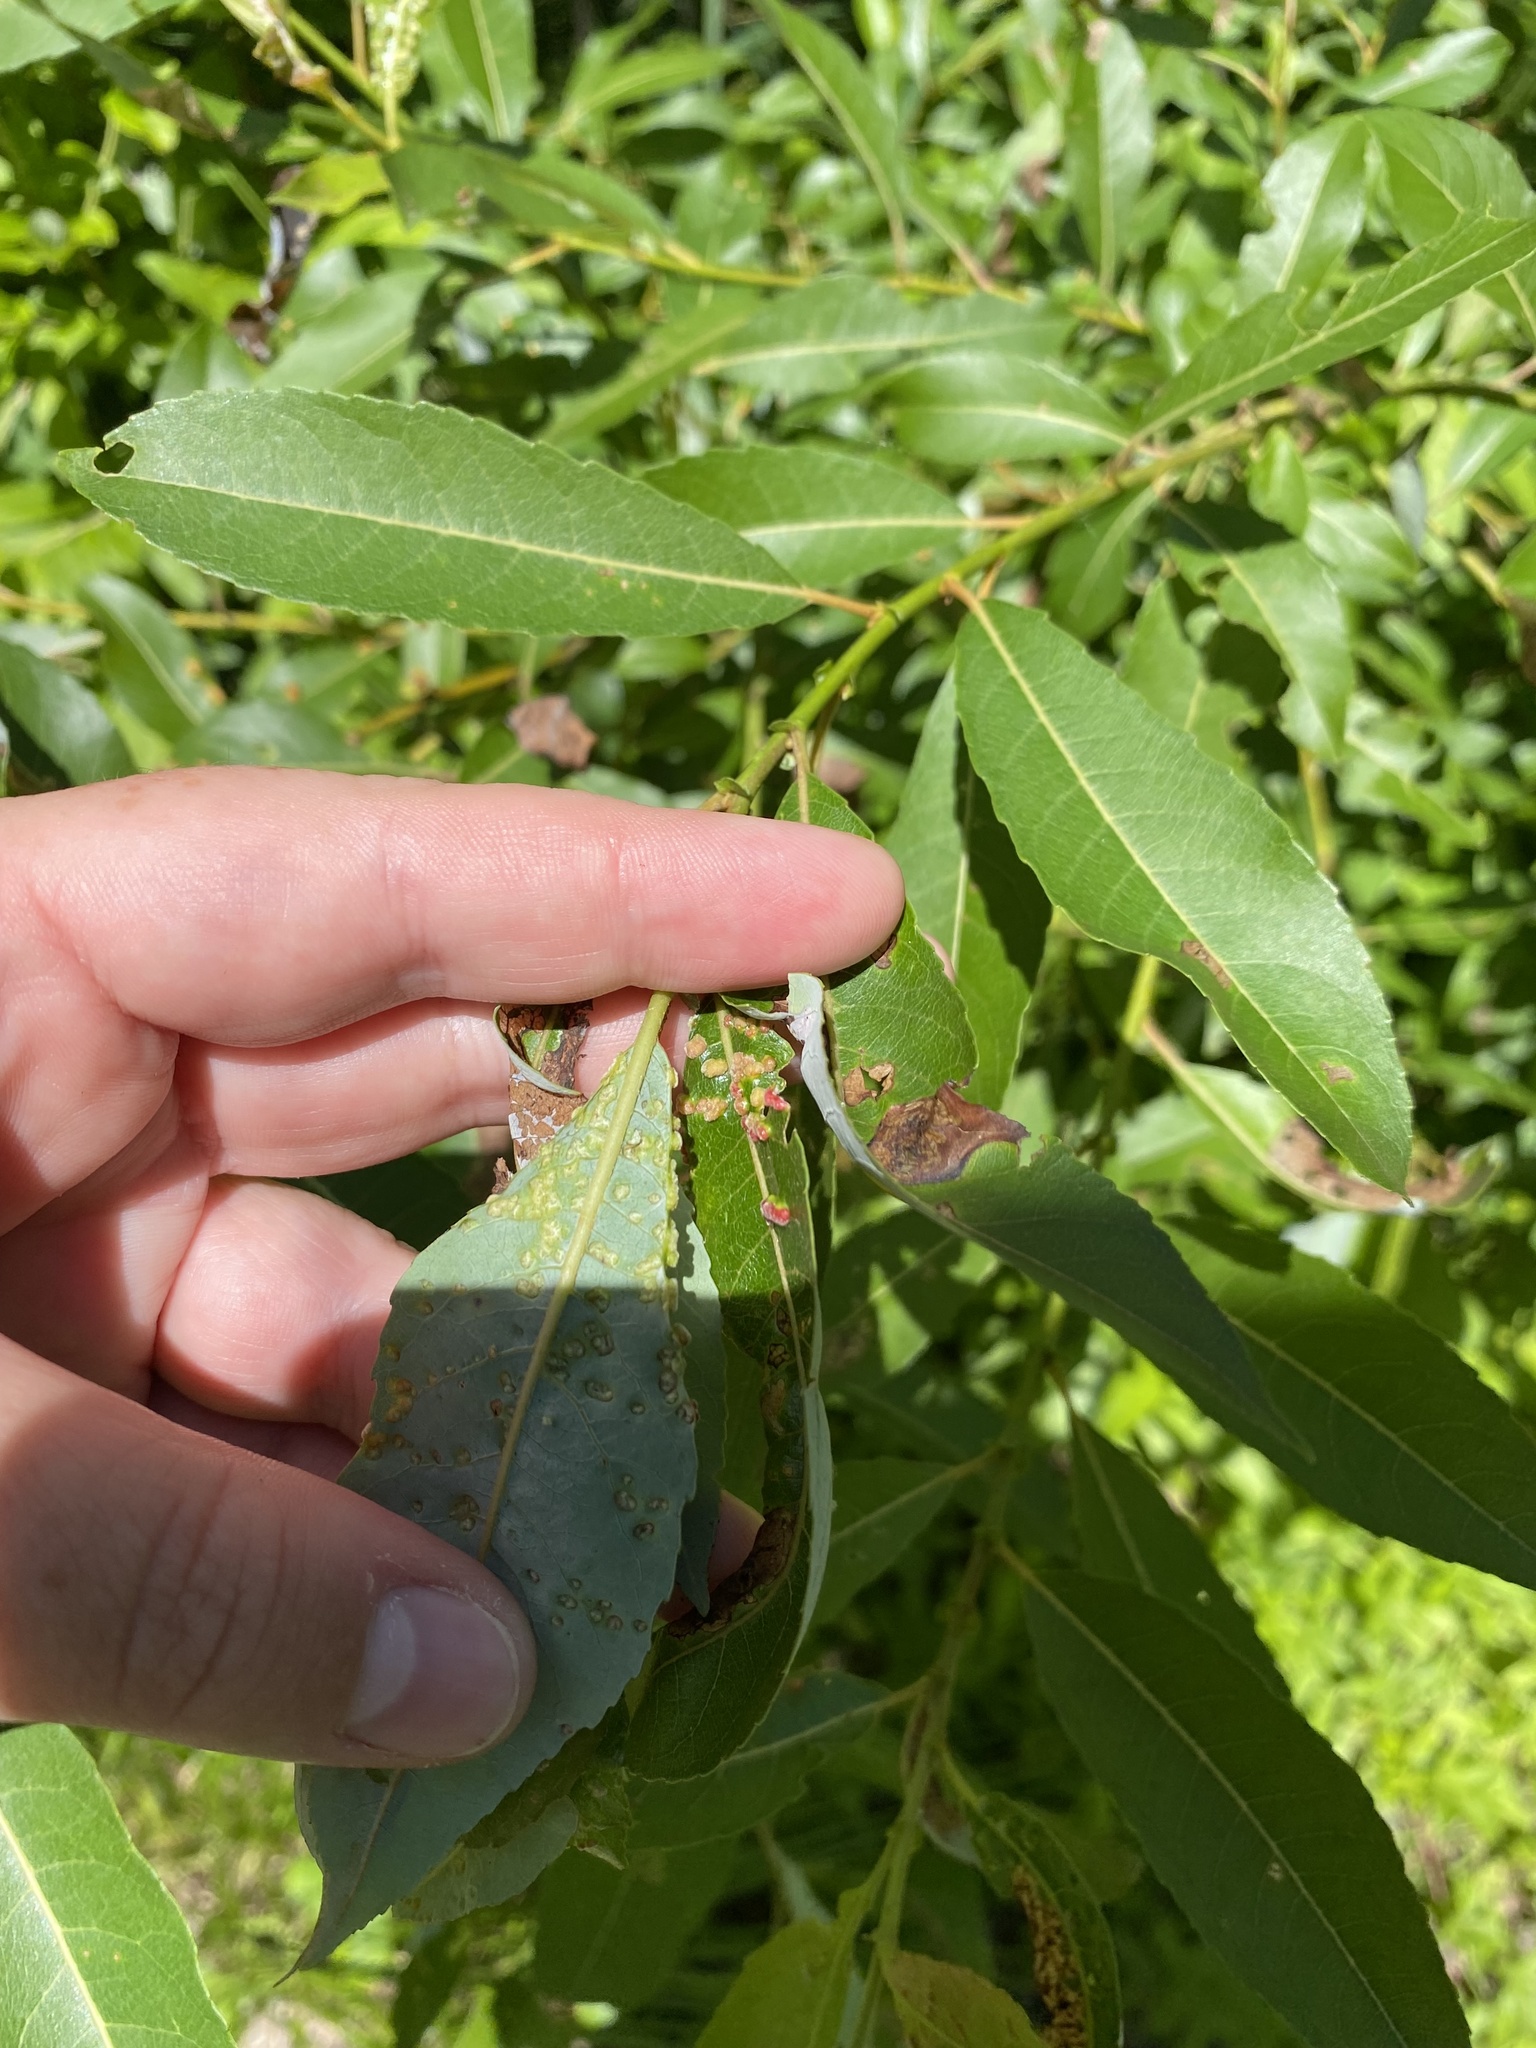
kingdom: Animalia
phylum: Arthropoda
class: Arachnida
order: Trombidiformes
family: Eriophyidae
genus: Aculus
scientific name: Aculus tetanothrix
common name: Willow bead gall mite
